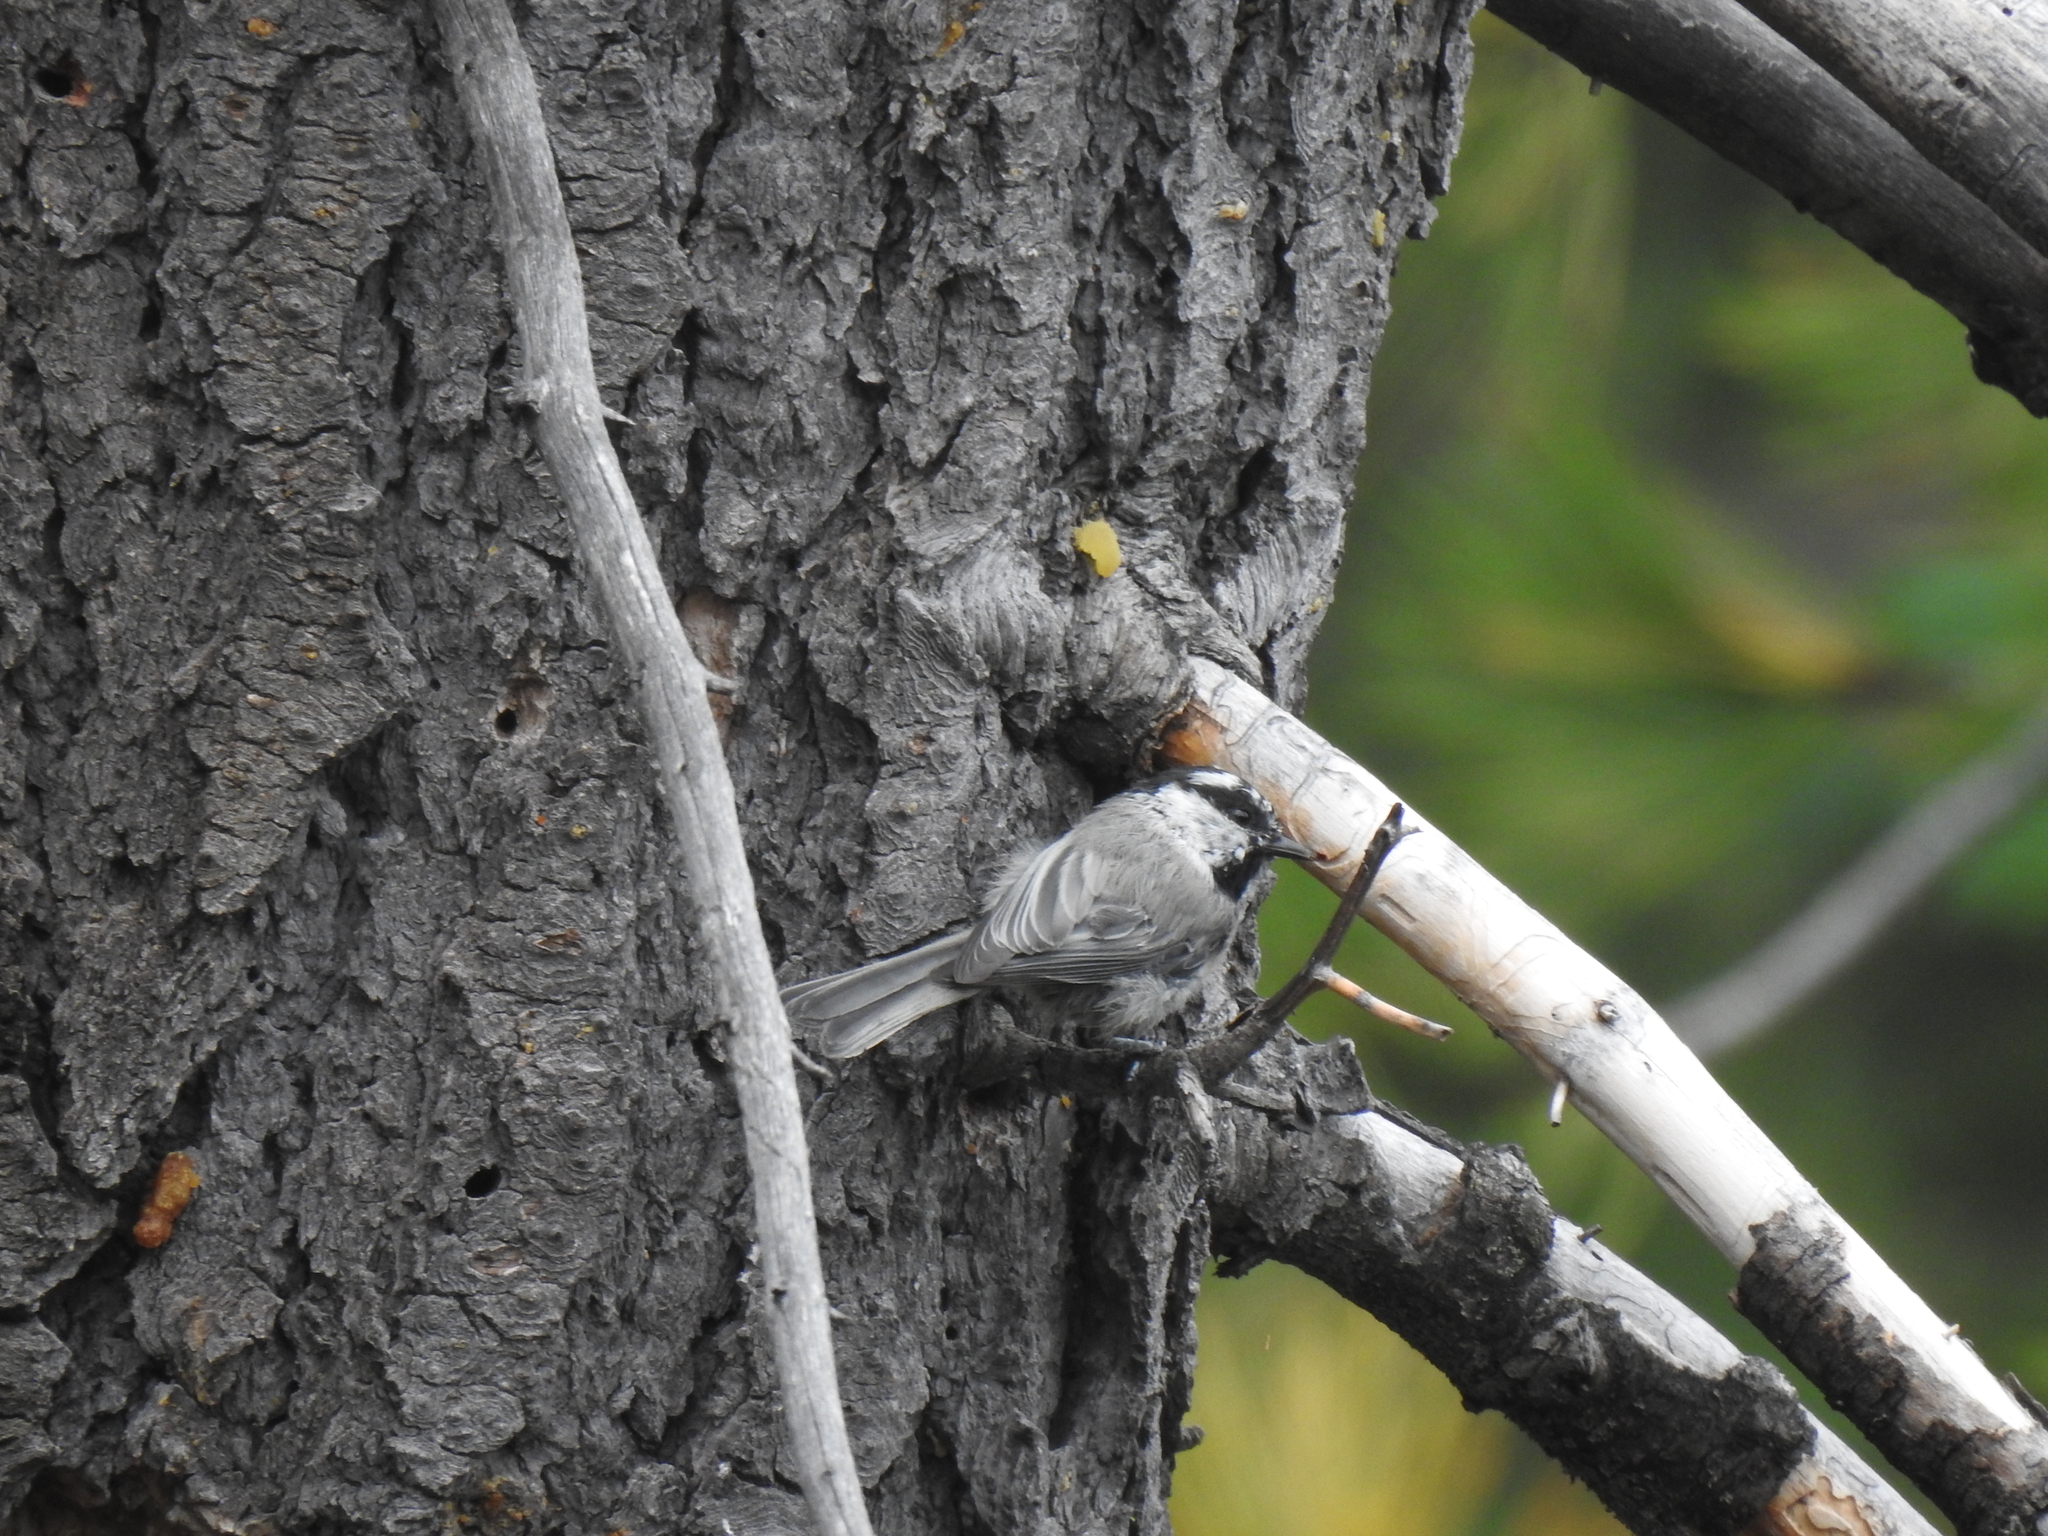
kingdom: Animalia
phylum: Chordata
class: Aves
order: Passeriformes
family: Paridae
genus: Poecile
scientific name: Poecile gambeli
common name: Mountain chickadee
